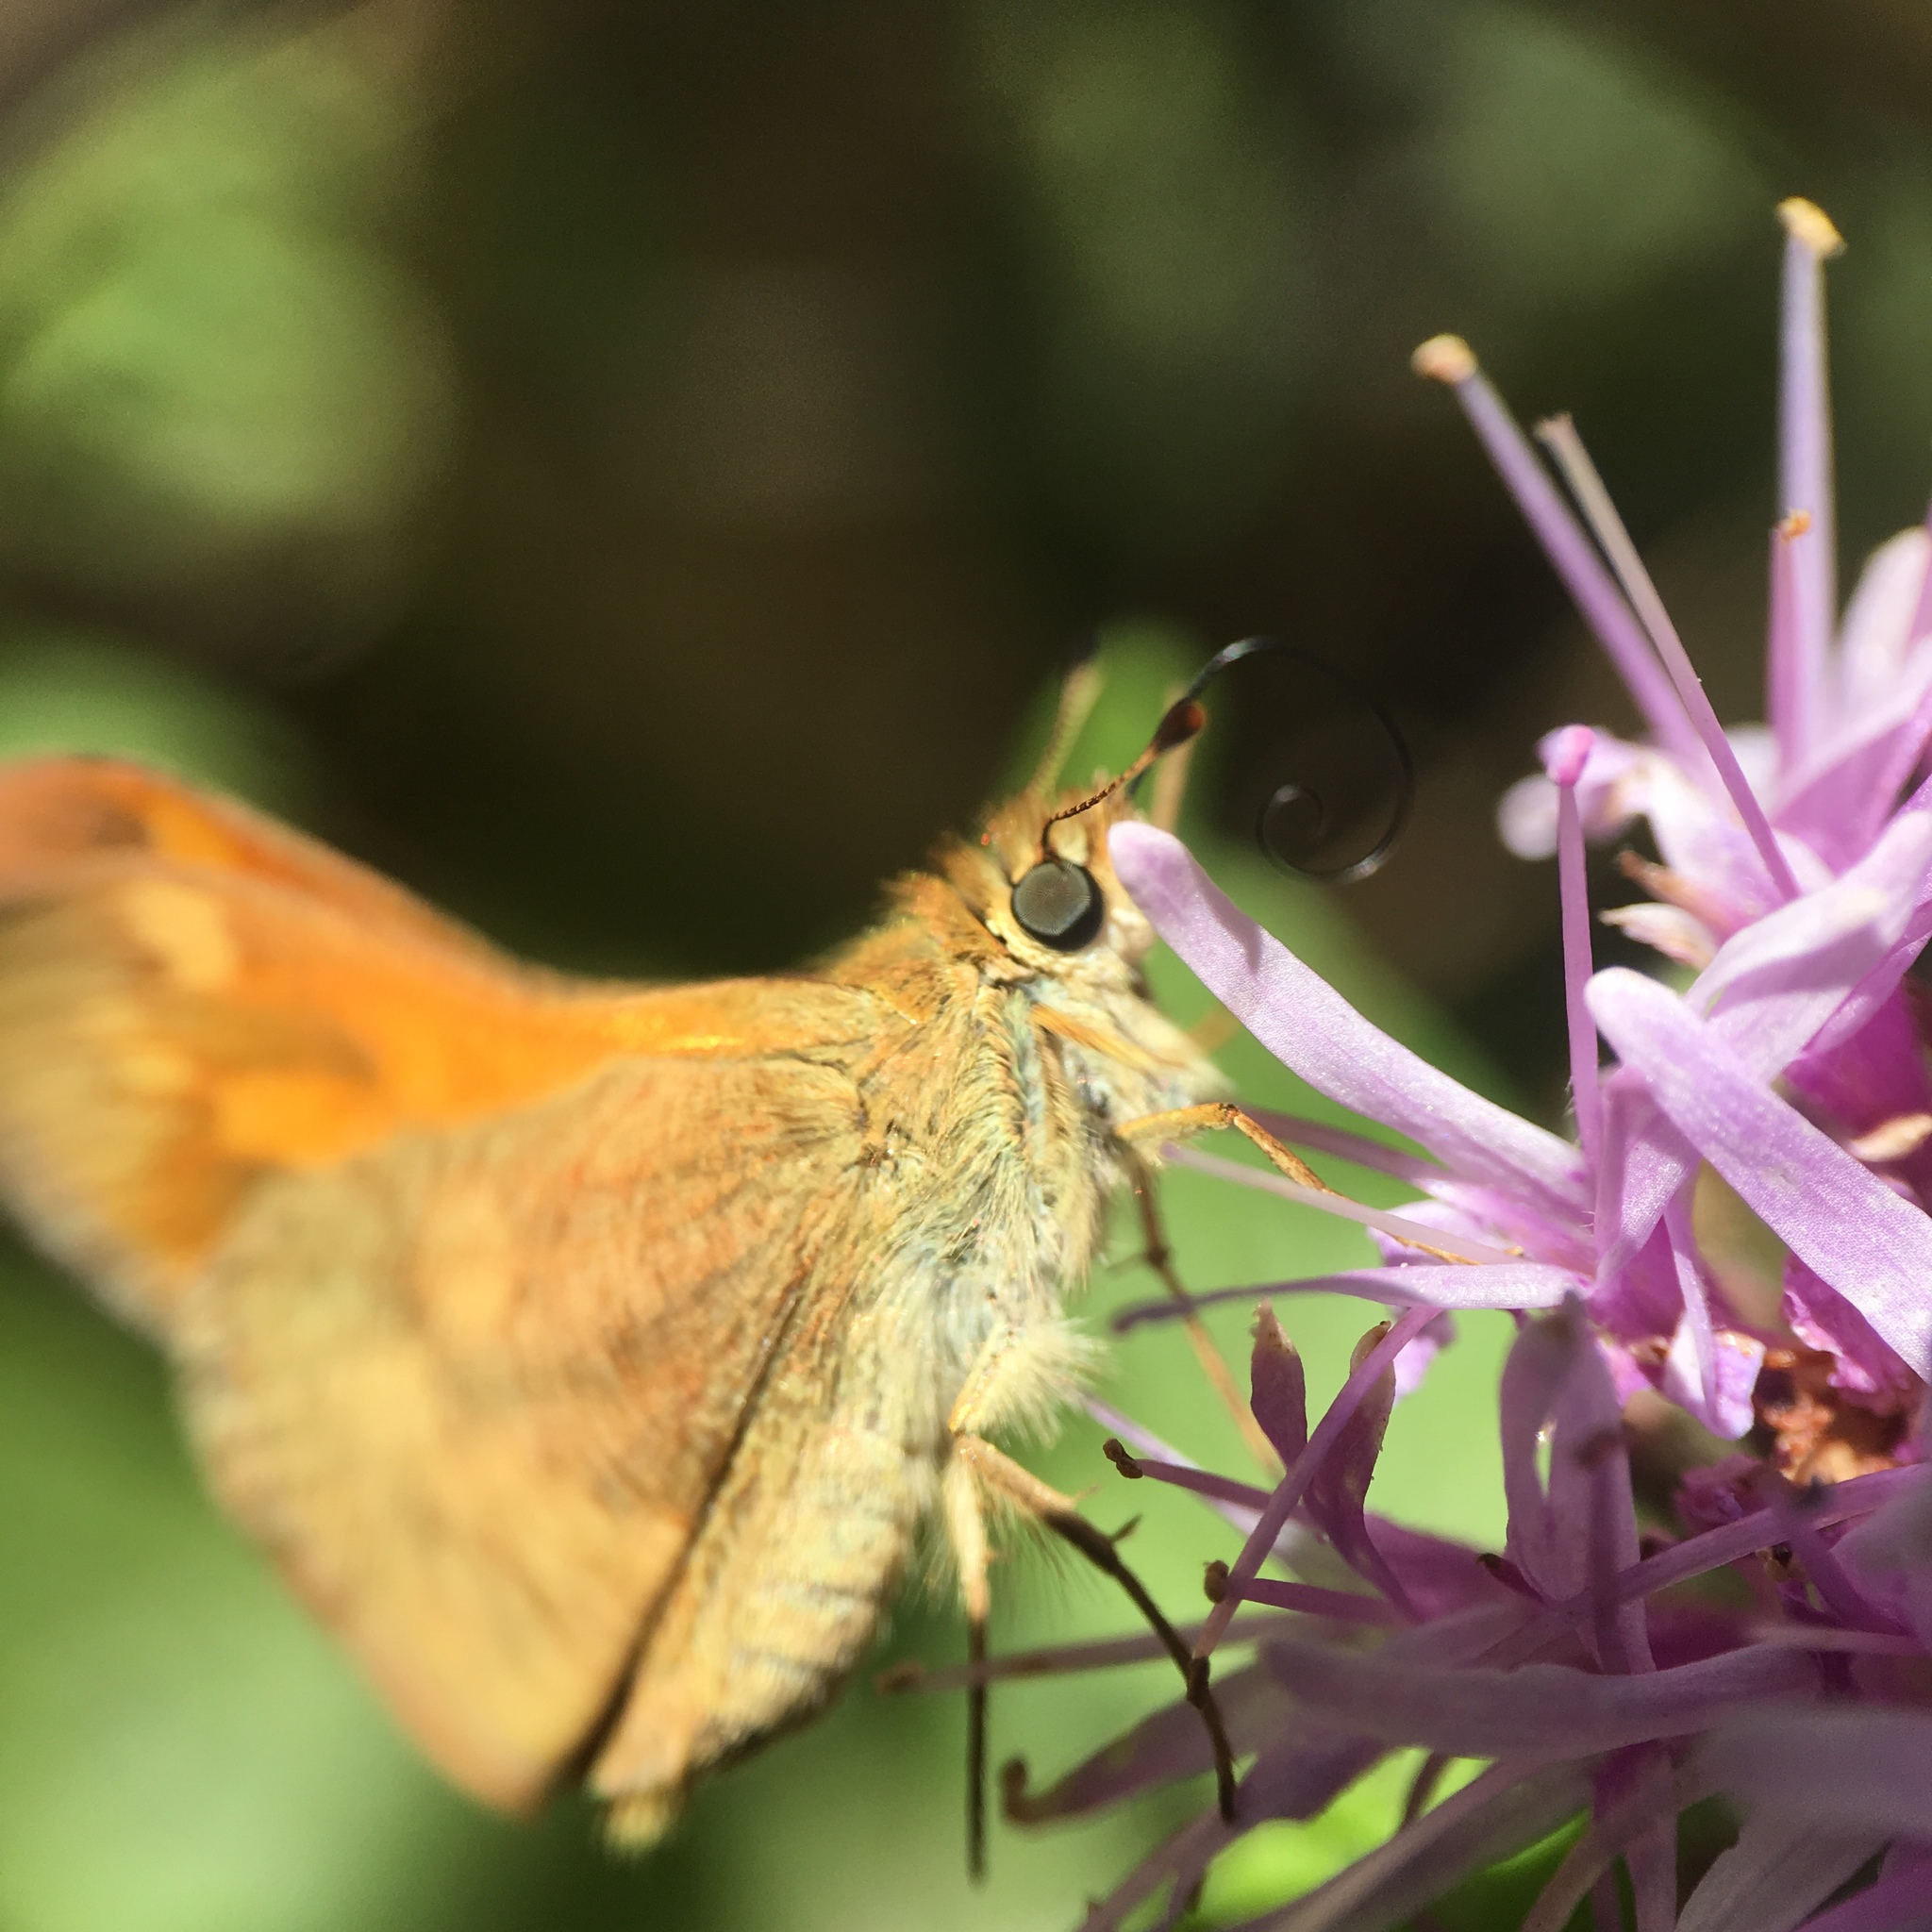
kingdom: Animalia
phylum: Arthropoda
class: Insecta
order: Lepidoptera
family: Hesperiidae
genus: Ochlodes
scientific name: Ochlodes sylvanoides
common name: Woodland skipper
